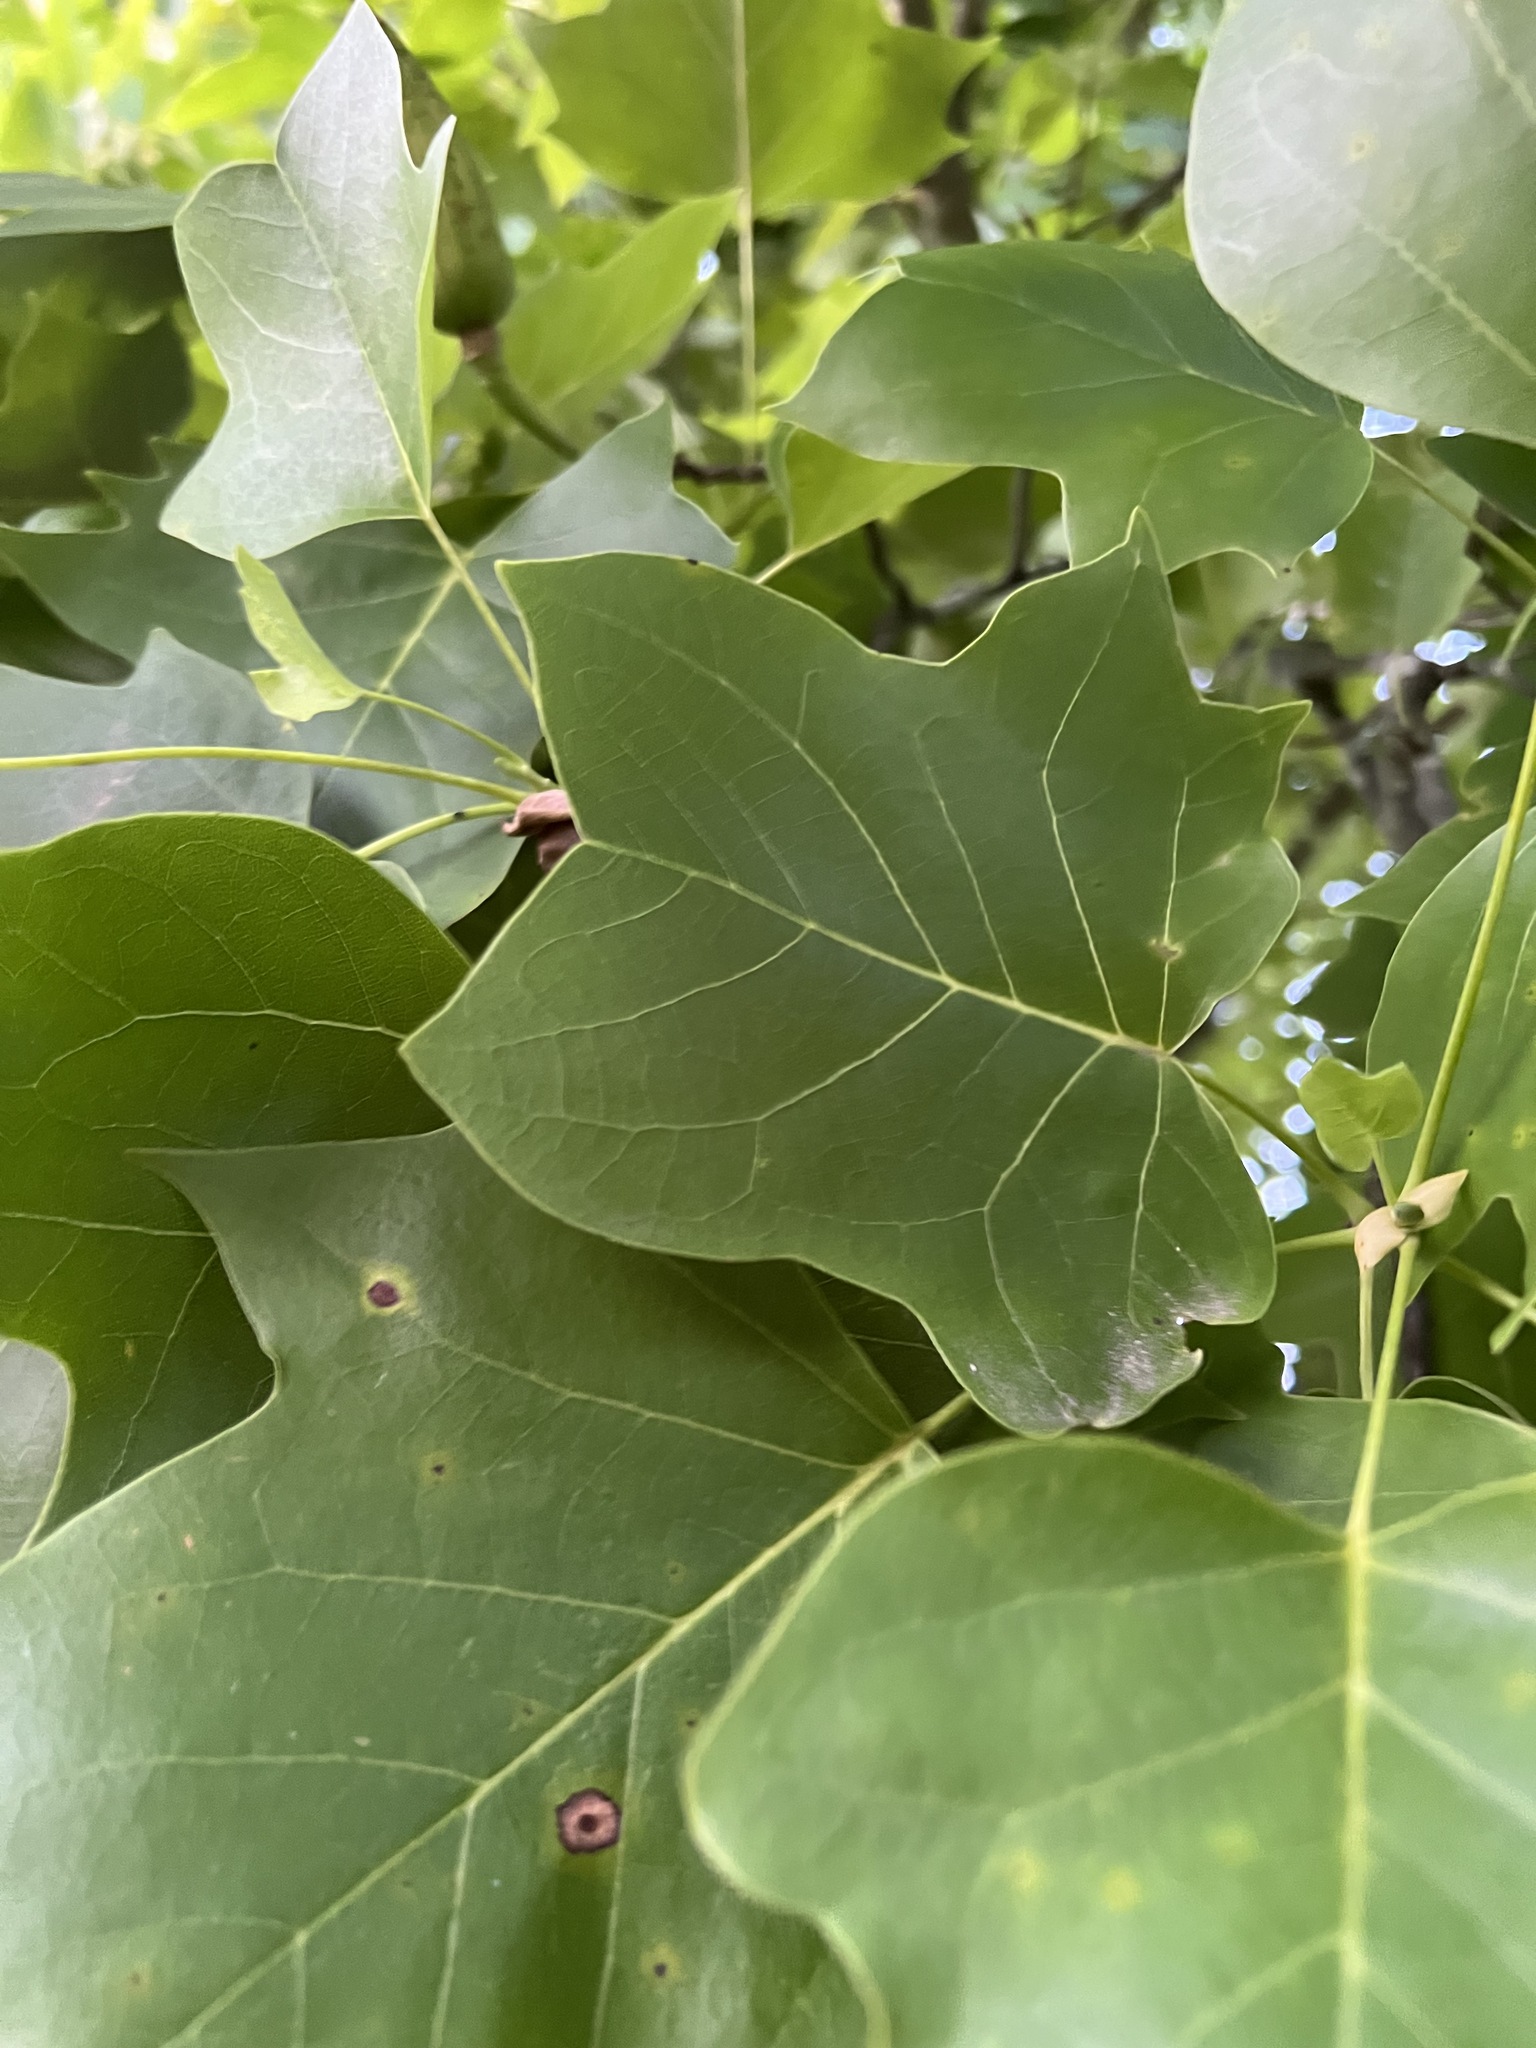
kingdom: Plantae
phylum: Tracheophyta
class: Magnoliopsida
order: Magnoliales
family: Magnoliaceae
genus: Liriodendron
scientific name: Liriodendron tulipifera
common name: Tulip tree
